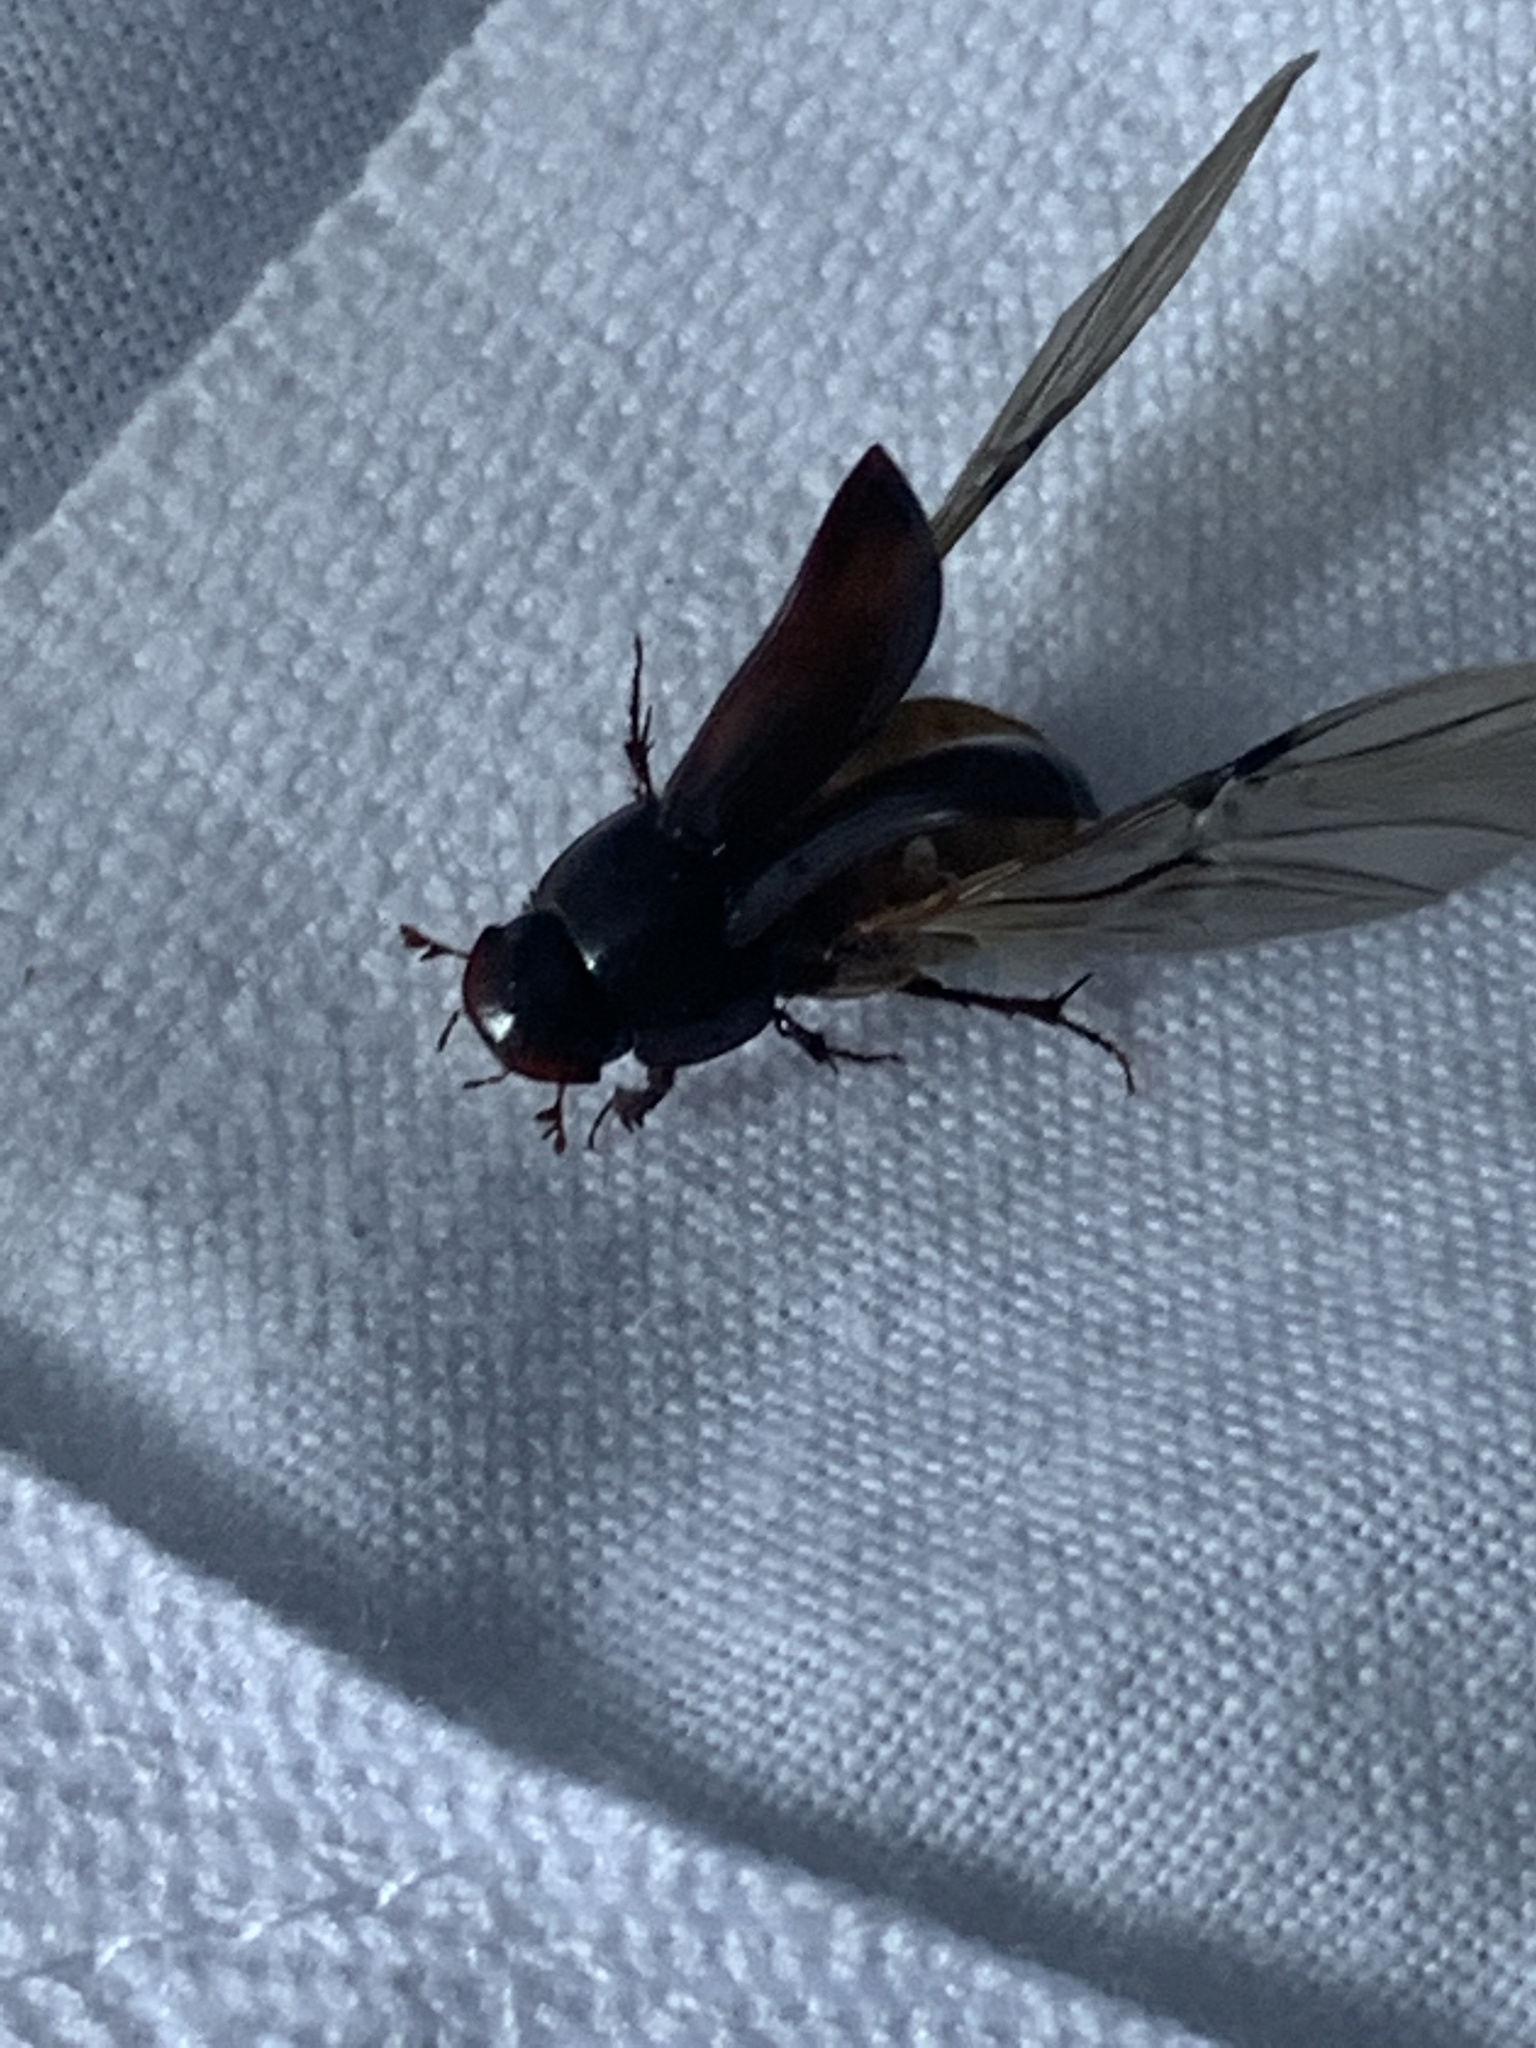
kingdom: Animalia
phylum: Arthropoda
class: Insecta
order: Coleoptera
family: Scarabaeidae
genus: Acrossus
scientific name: Acrossus rufipes
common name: Night-flying dung beetle
